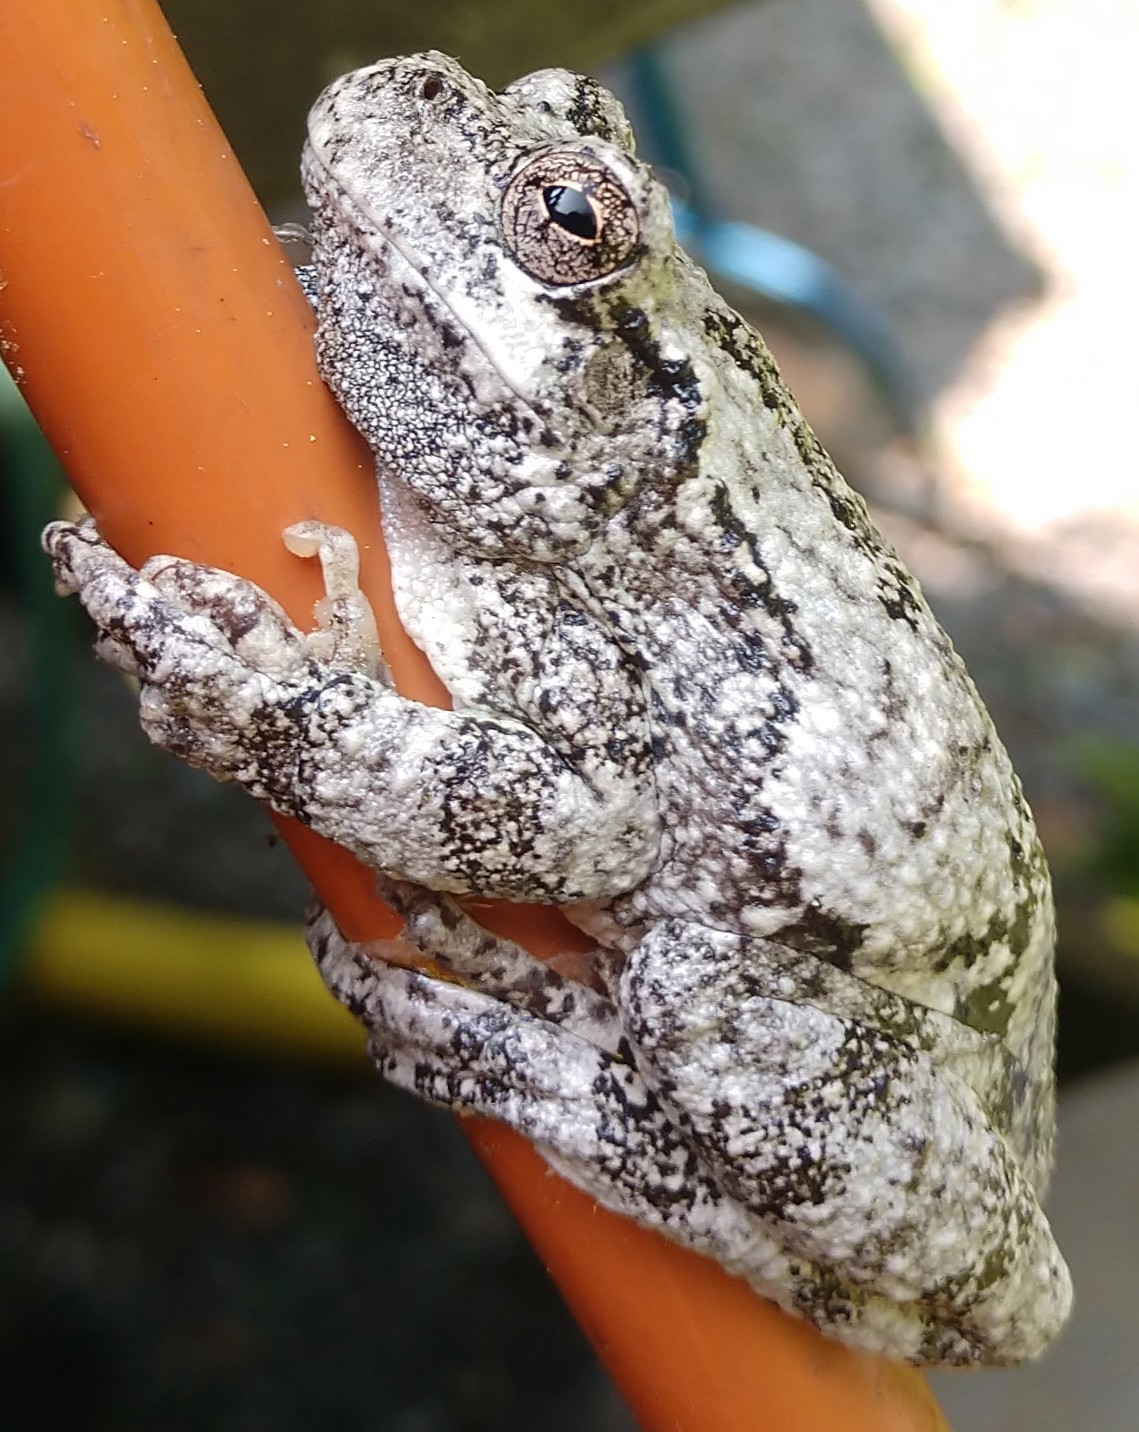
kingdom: Animalia
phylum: Chordata
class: Amphibia
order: Anura
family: Hylidae
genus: Dryophytes
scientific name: Dryophytes versicolor
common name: Gray treefrog
